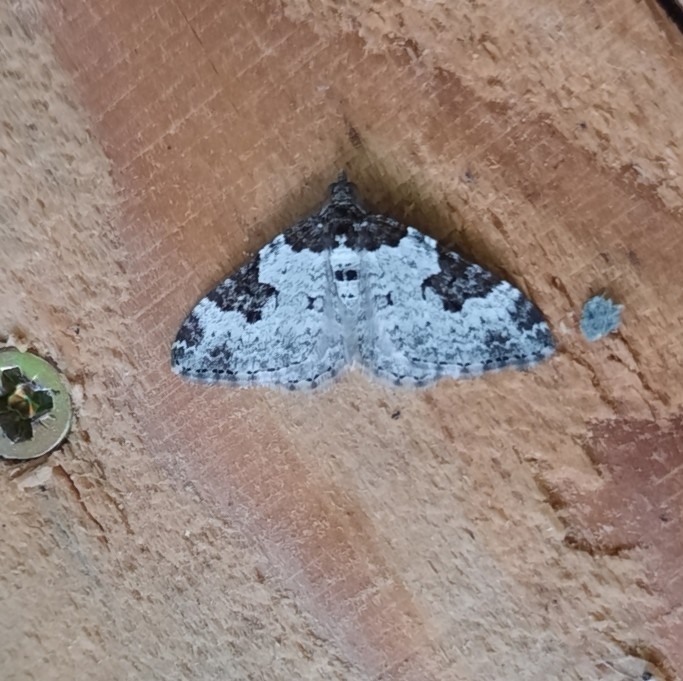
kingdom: Animalia
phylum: Arthropoda
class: Insecta
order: Lepidoptera
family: Geometridae
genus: Xanthorhoe
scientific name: Xanthorhoe fluctuata
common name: Garden carpet
